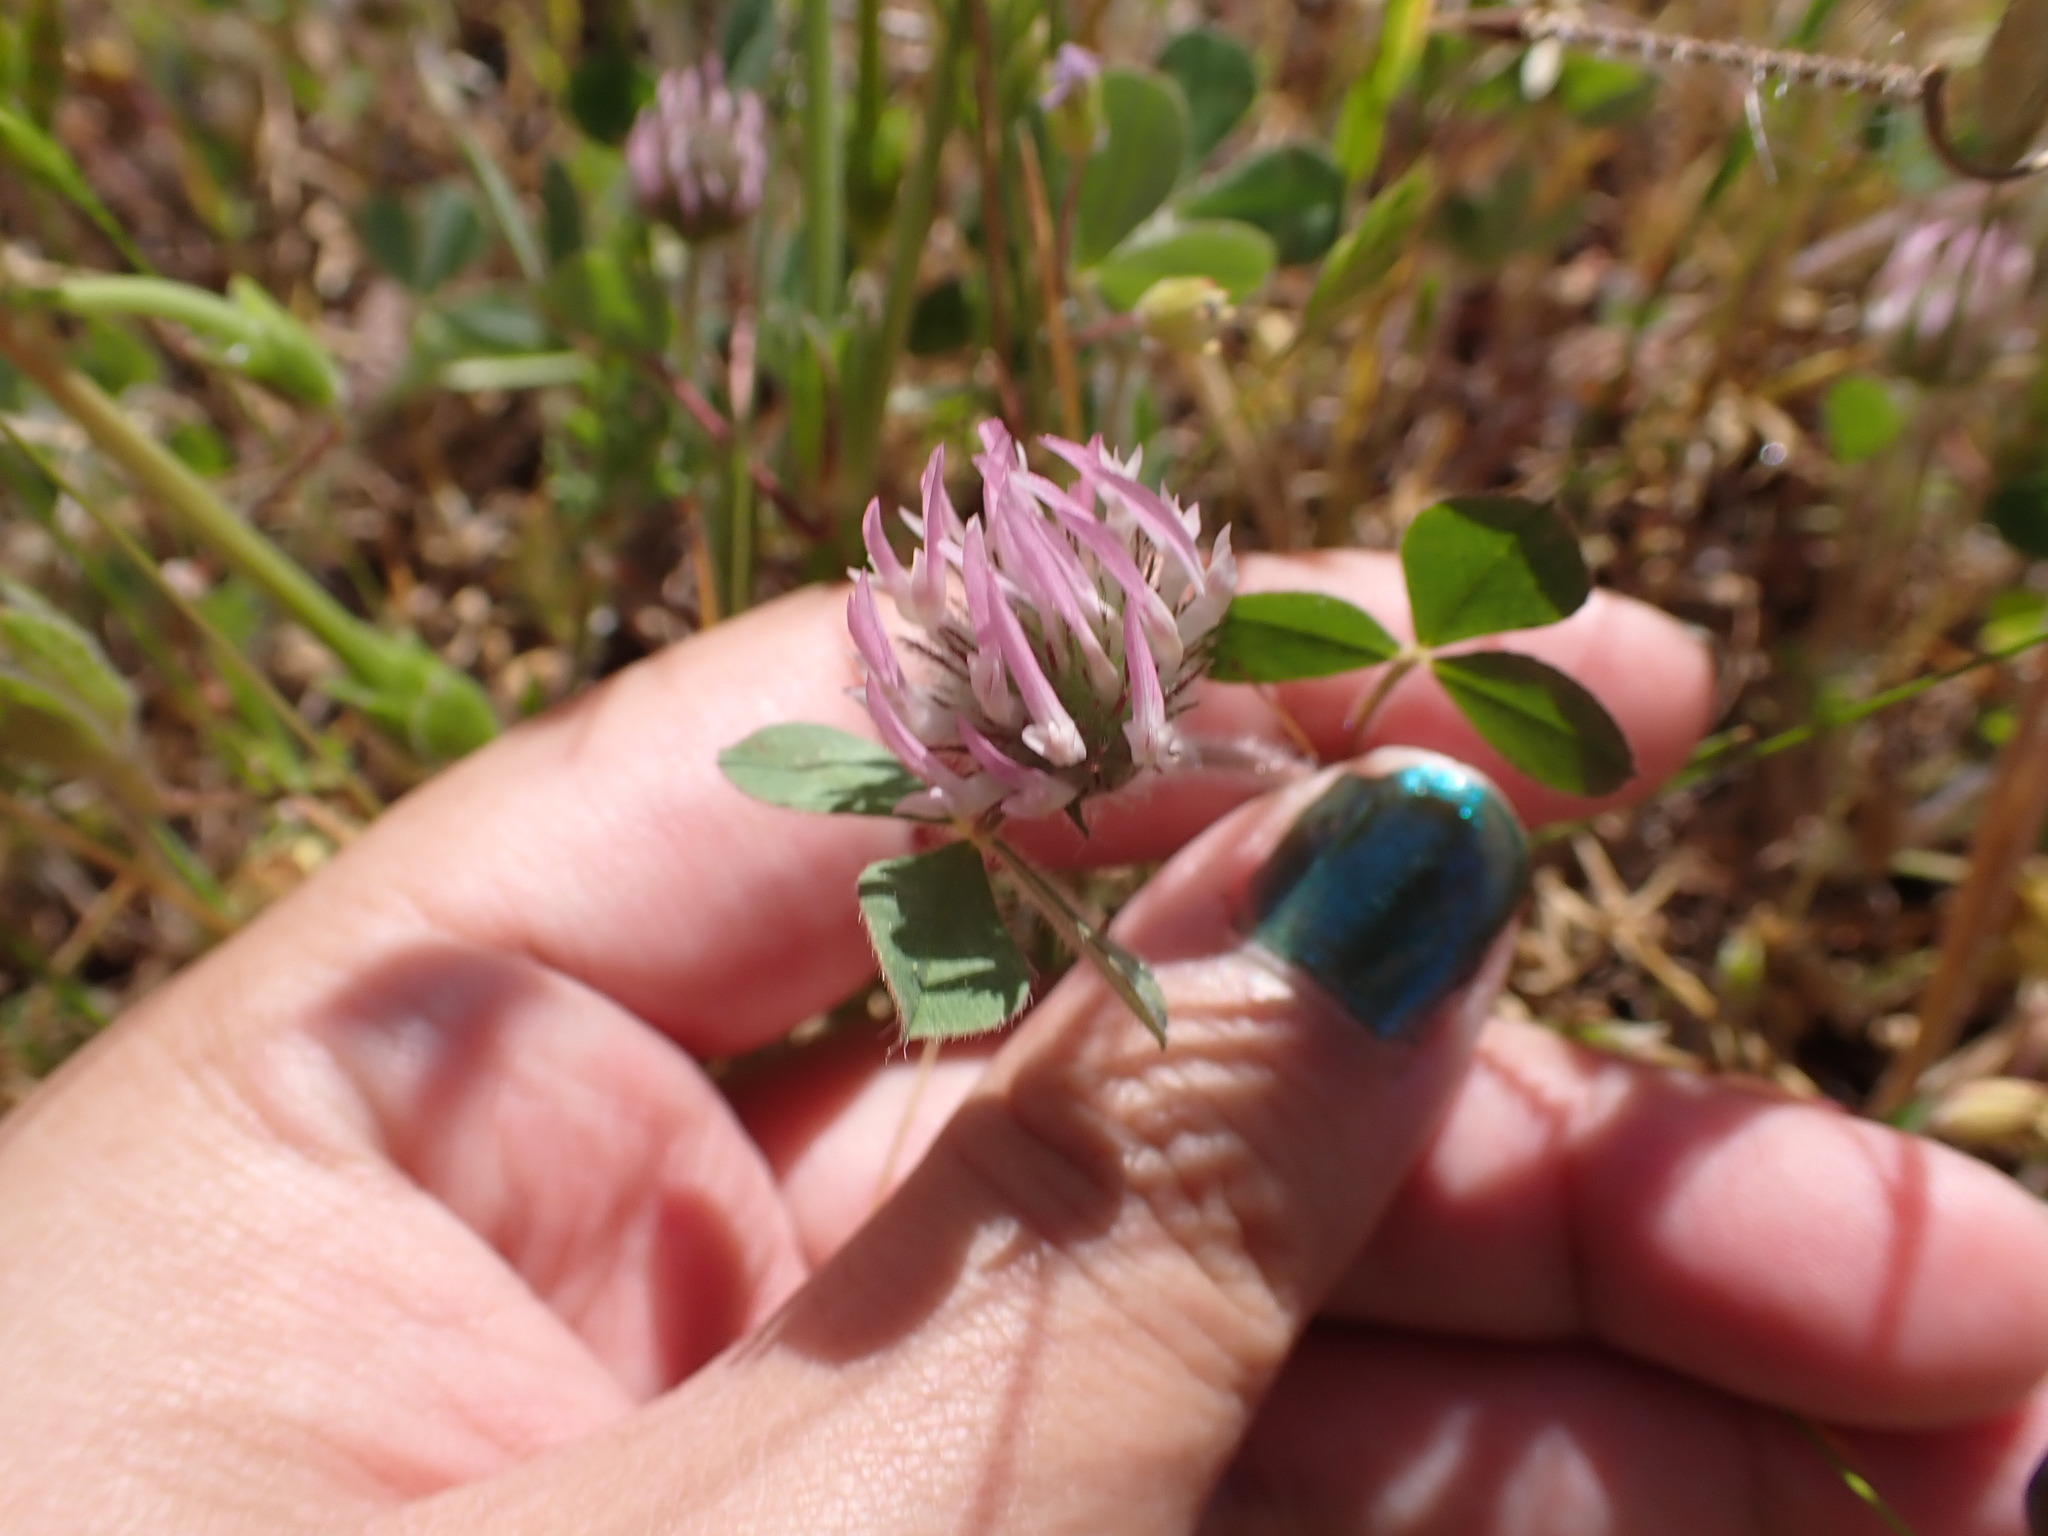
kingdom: Plantae
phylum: Tracheophyta
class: Magnoliopsida
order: Fabales
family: Fabaceae
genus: Trifolium
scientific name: Trifolium hirtum
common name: Rose clover
